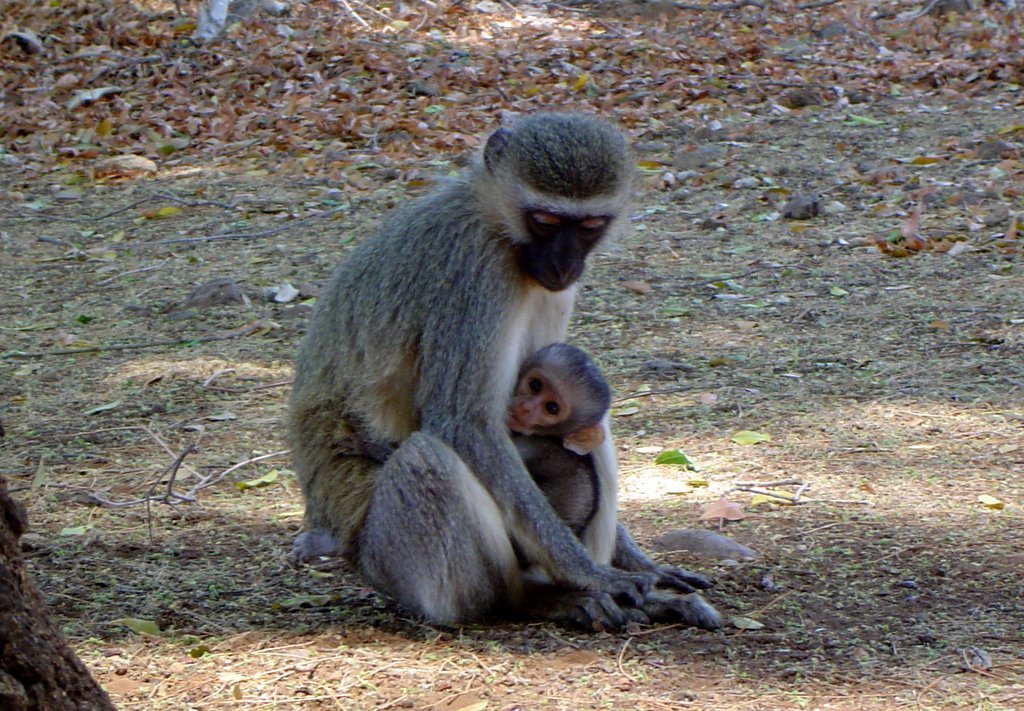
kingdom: Animalia
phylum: Chordata
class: Mammalia
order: Primates
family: Cercopithecidae
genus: Chlorocebus
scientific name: Chlorocebus pygerythrus
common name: Vervet monkey
